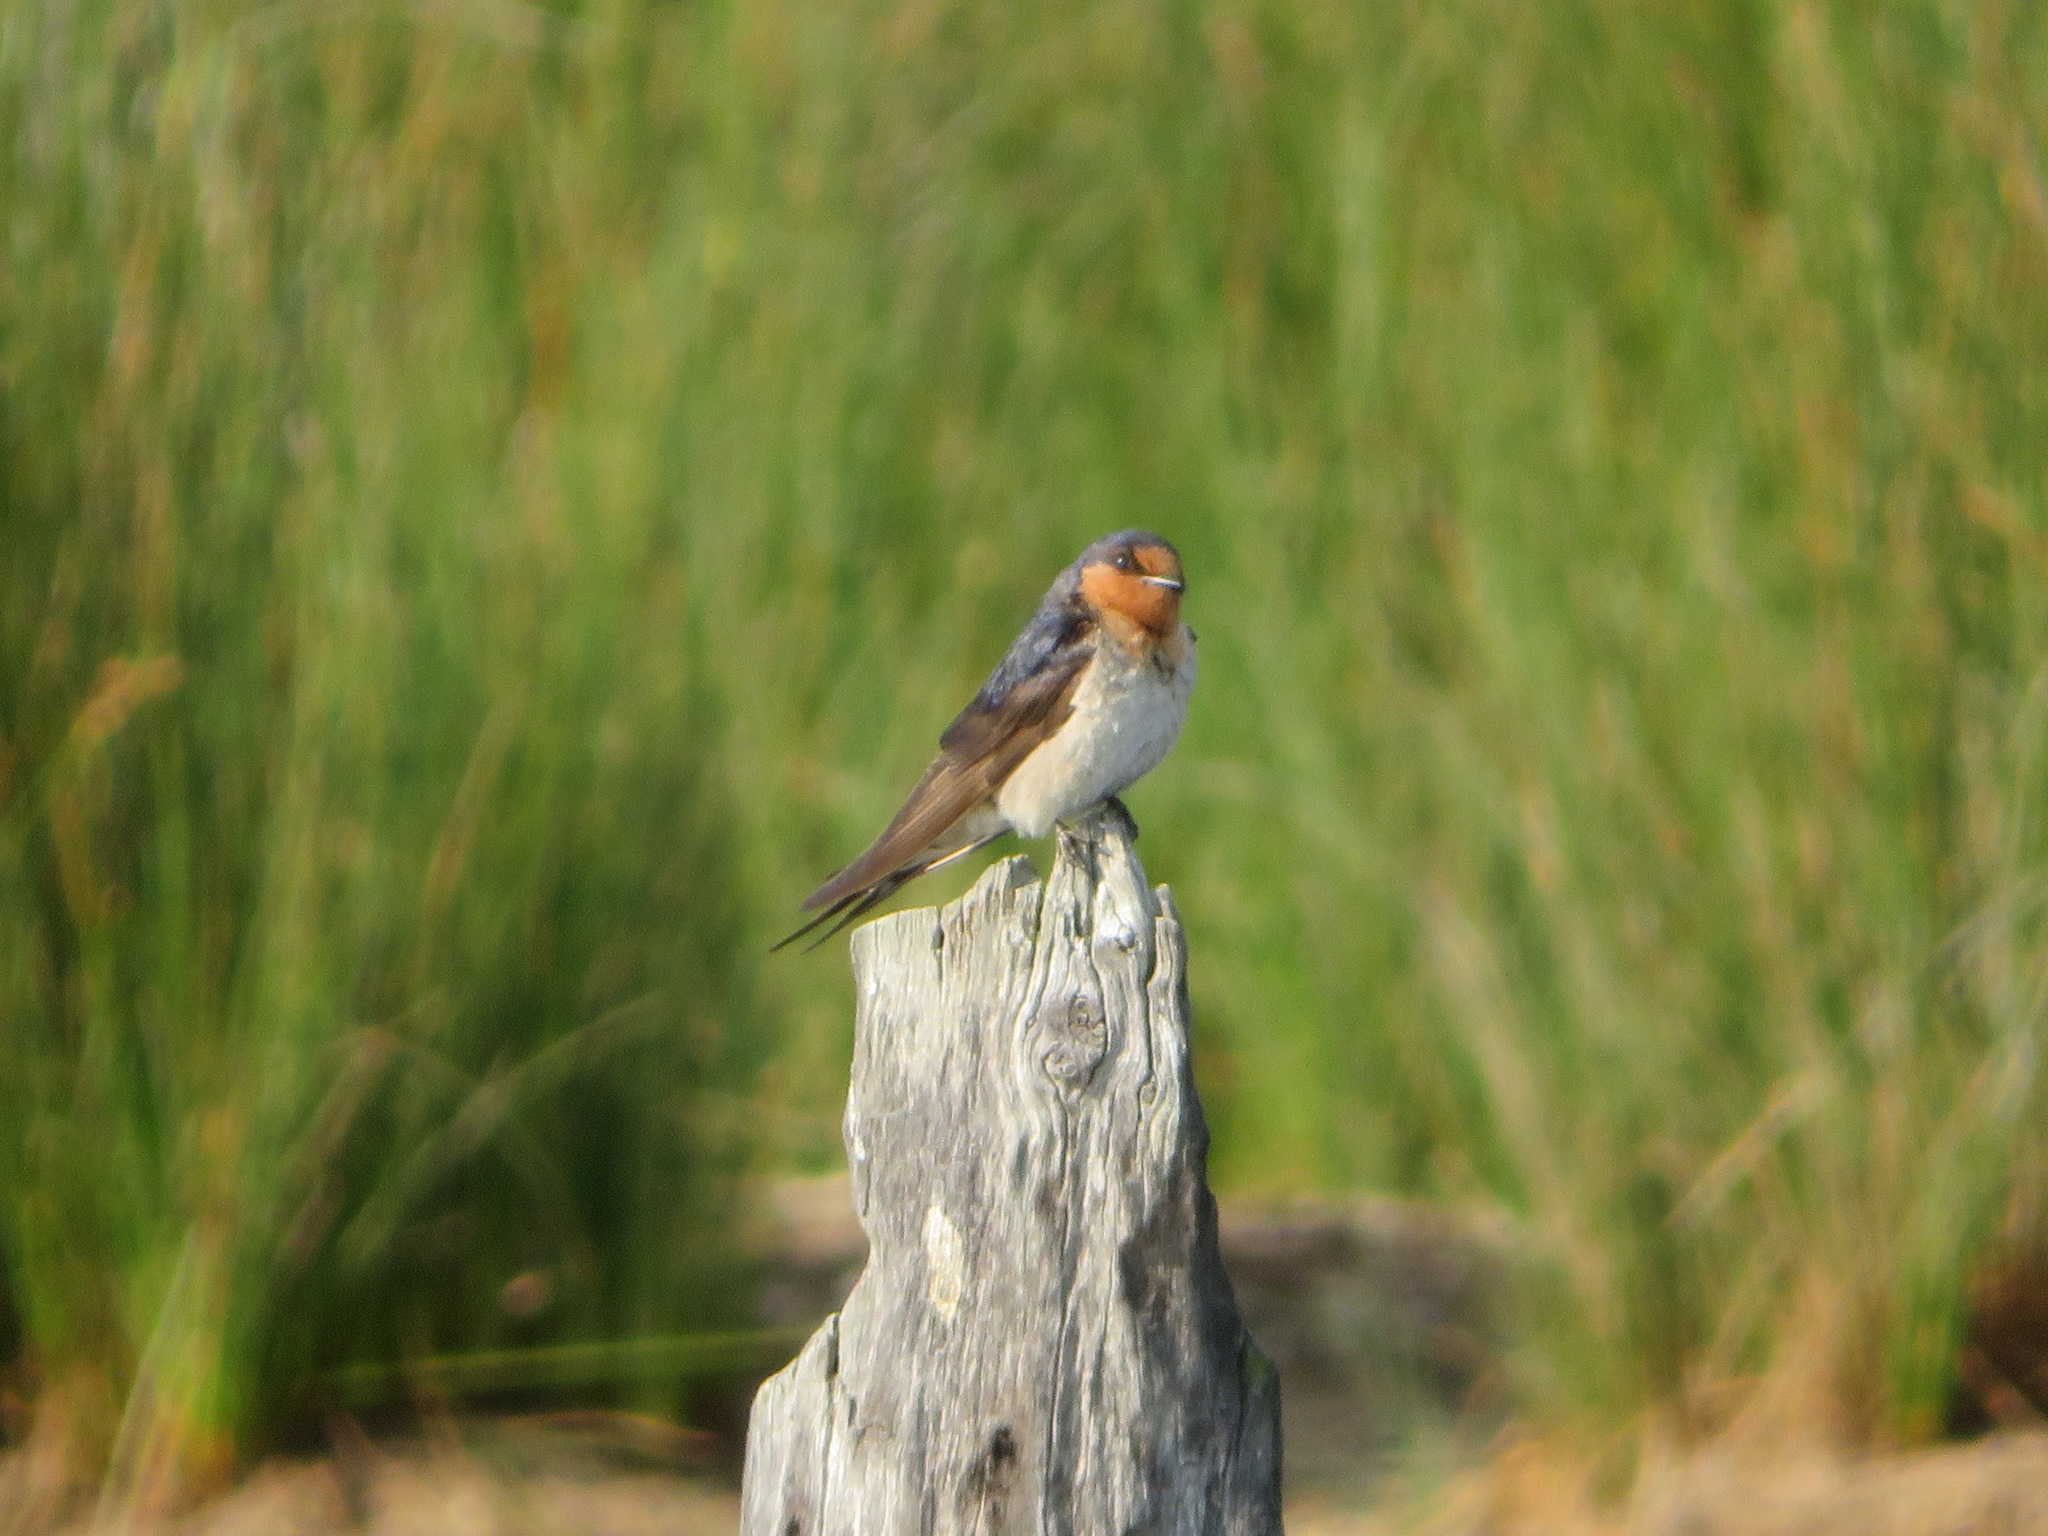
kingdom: Animalia
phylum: Chordata
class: Aves
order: Passeriformes
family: Hirundinidae
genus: Hirundo
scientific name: Hirundo neoxena
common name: Welcome swallow
